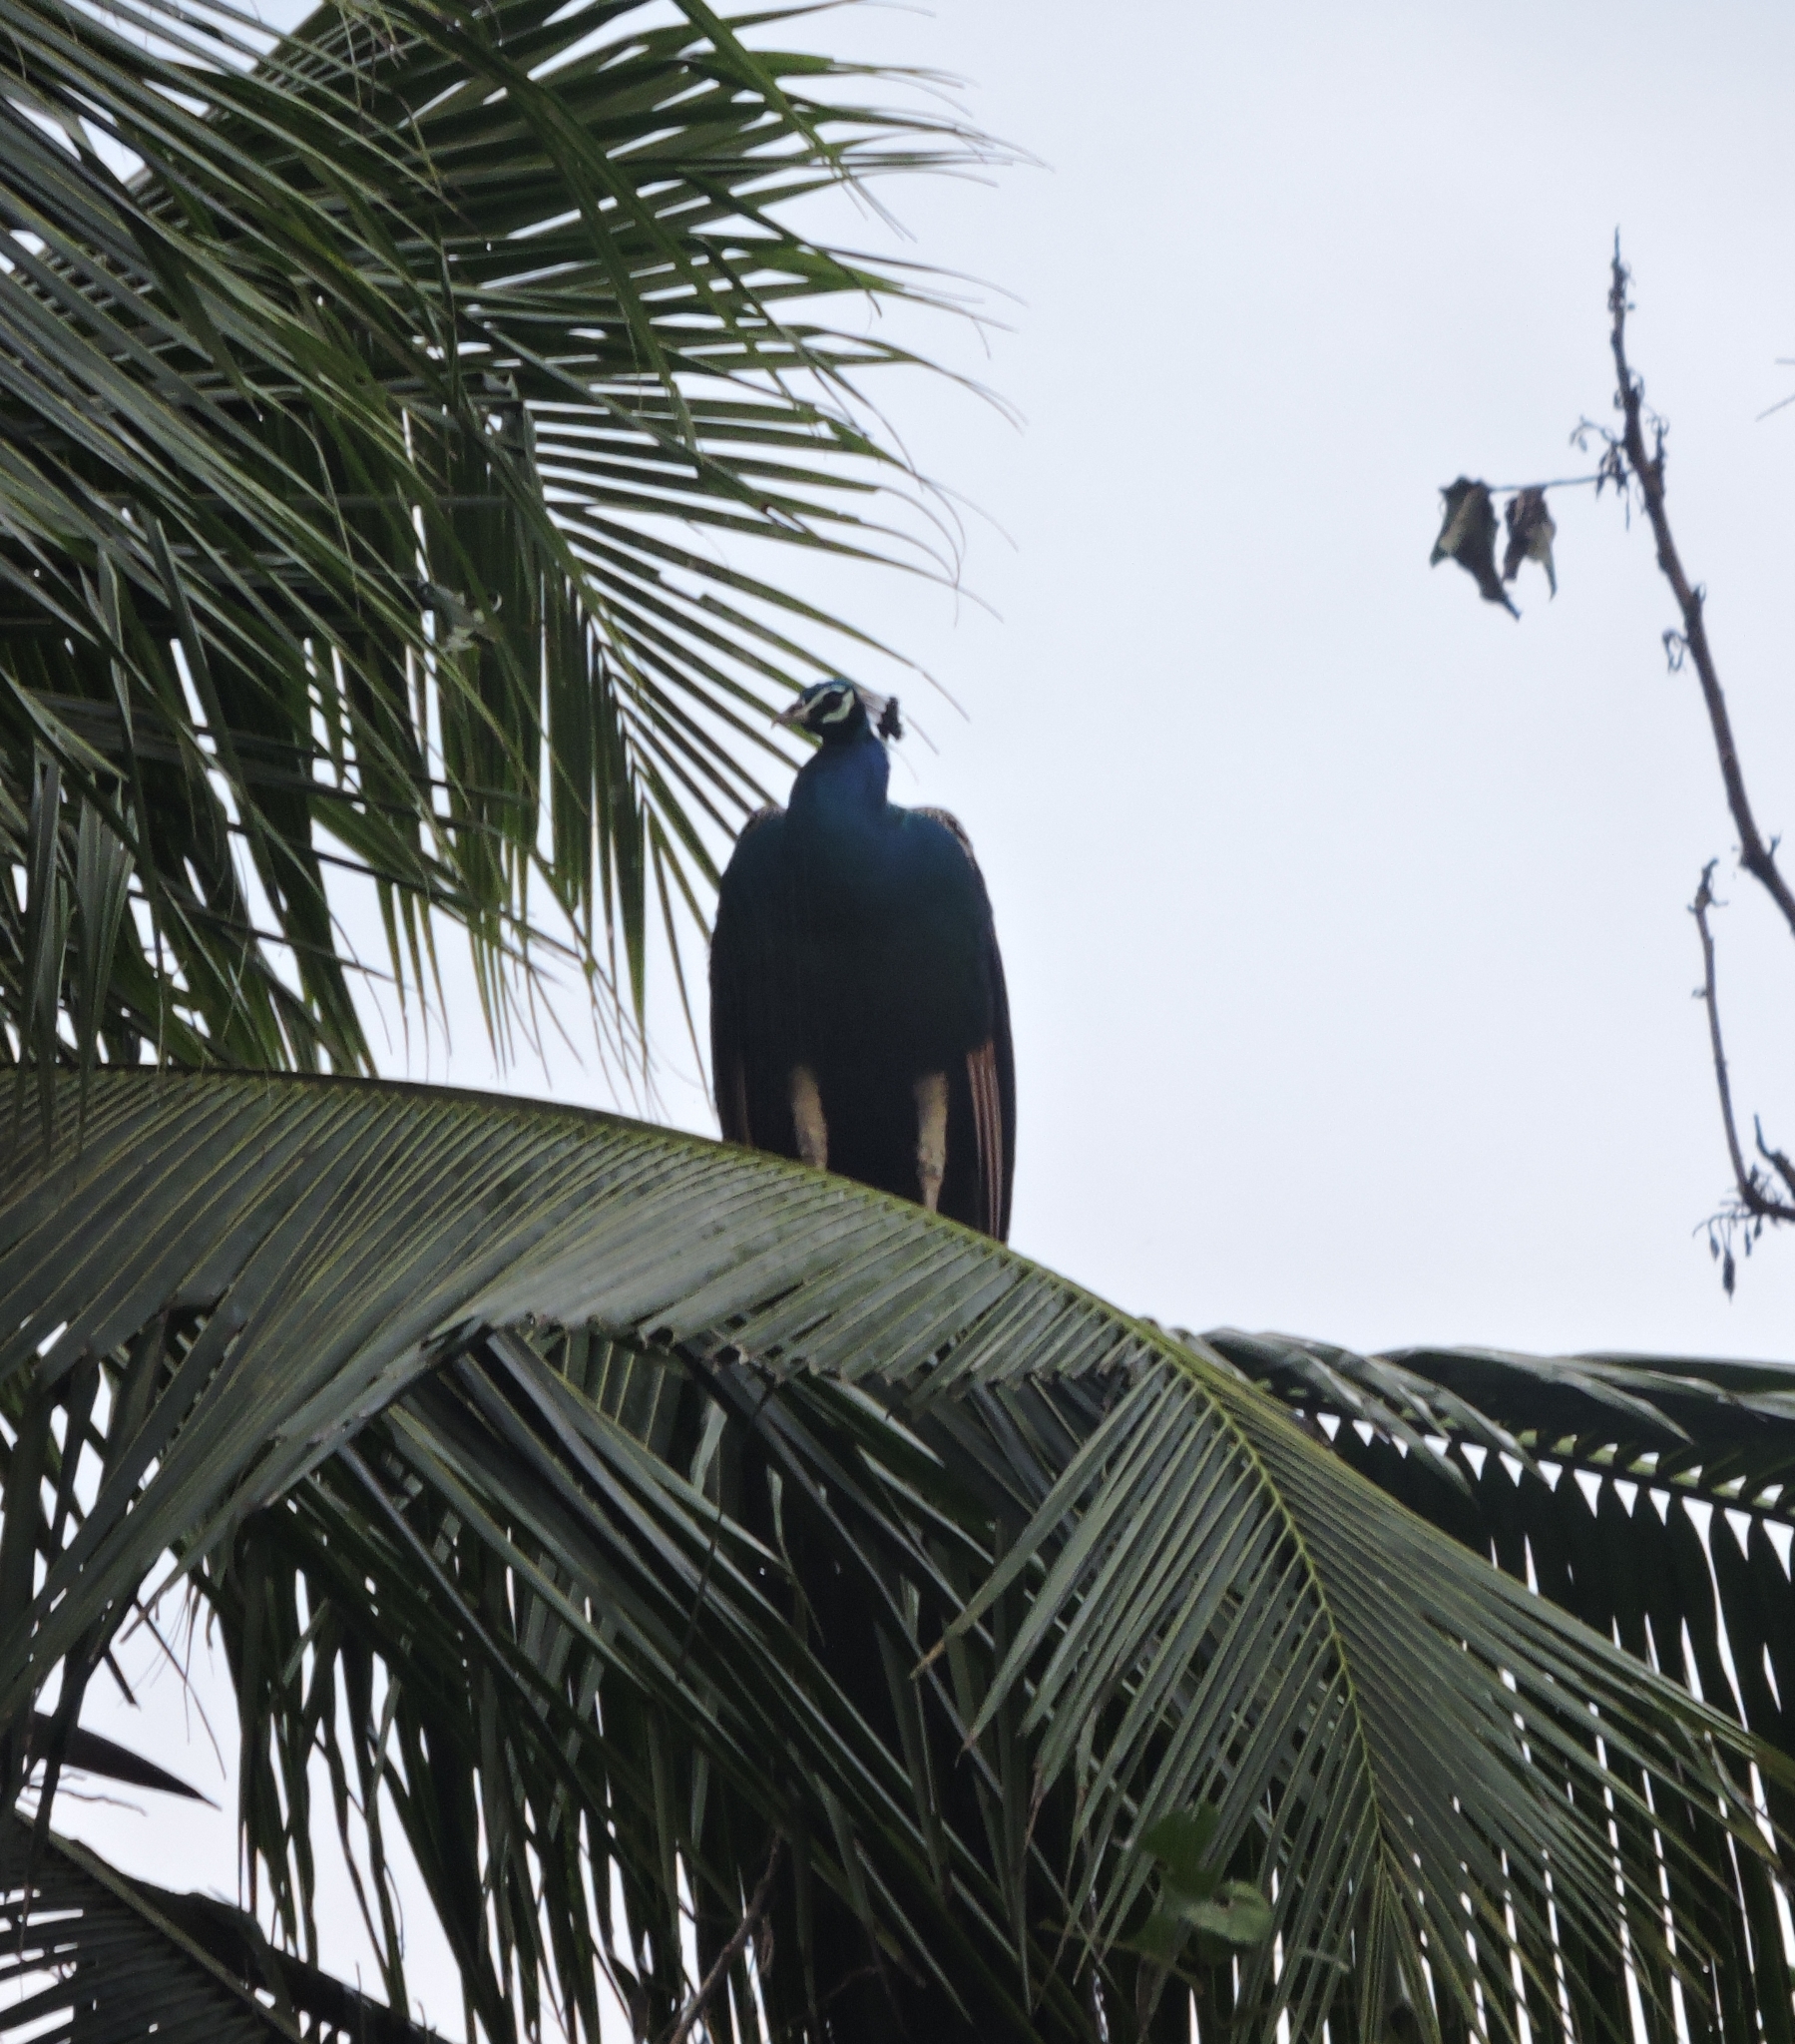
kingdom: Animalia
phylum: Chordata
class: Aves
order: Galliformes
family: Phasianidae
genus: Pavo
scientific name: Pavo cristatus
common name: Indian peafowl
